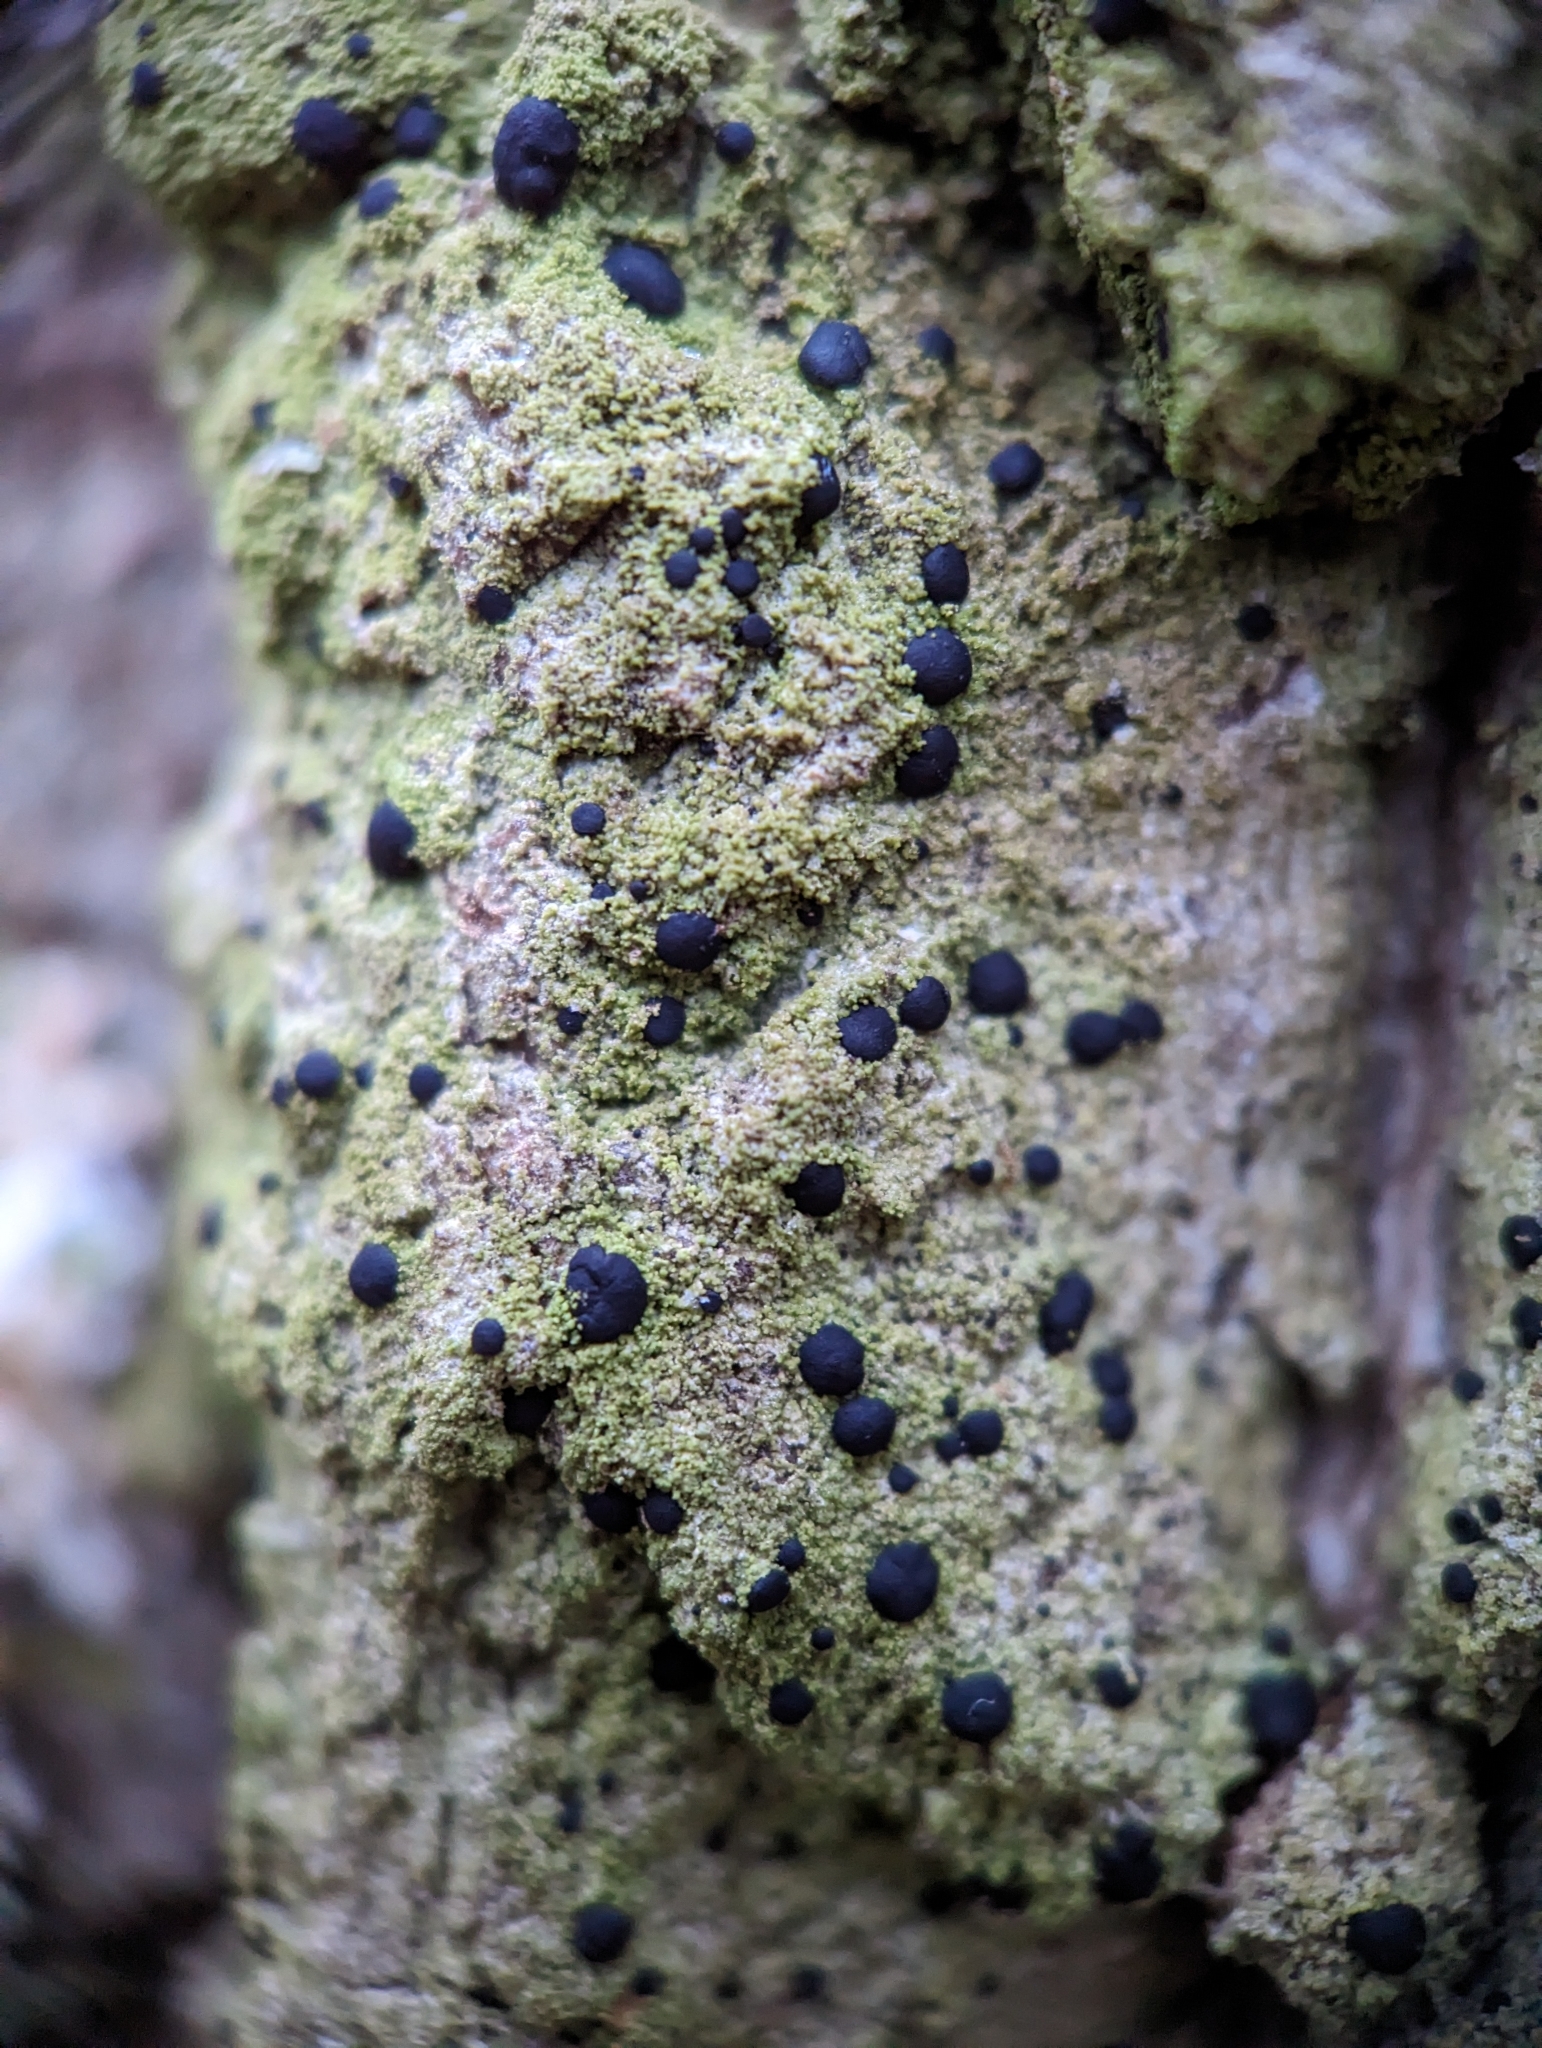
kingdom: Fungi
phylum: Ascomycota
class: Lecanoromycetes
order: Lecanorales
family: Ramalinaceae
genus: Bacidia
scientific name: Bacidia schweinitzii
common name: Surprise lichen
